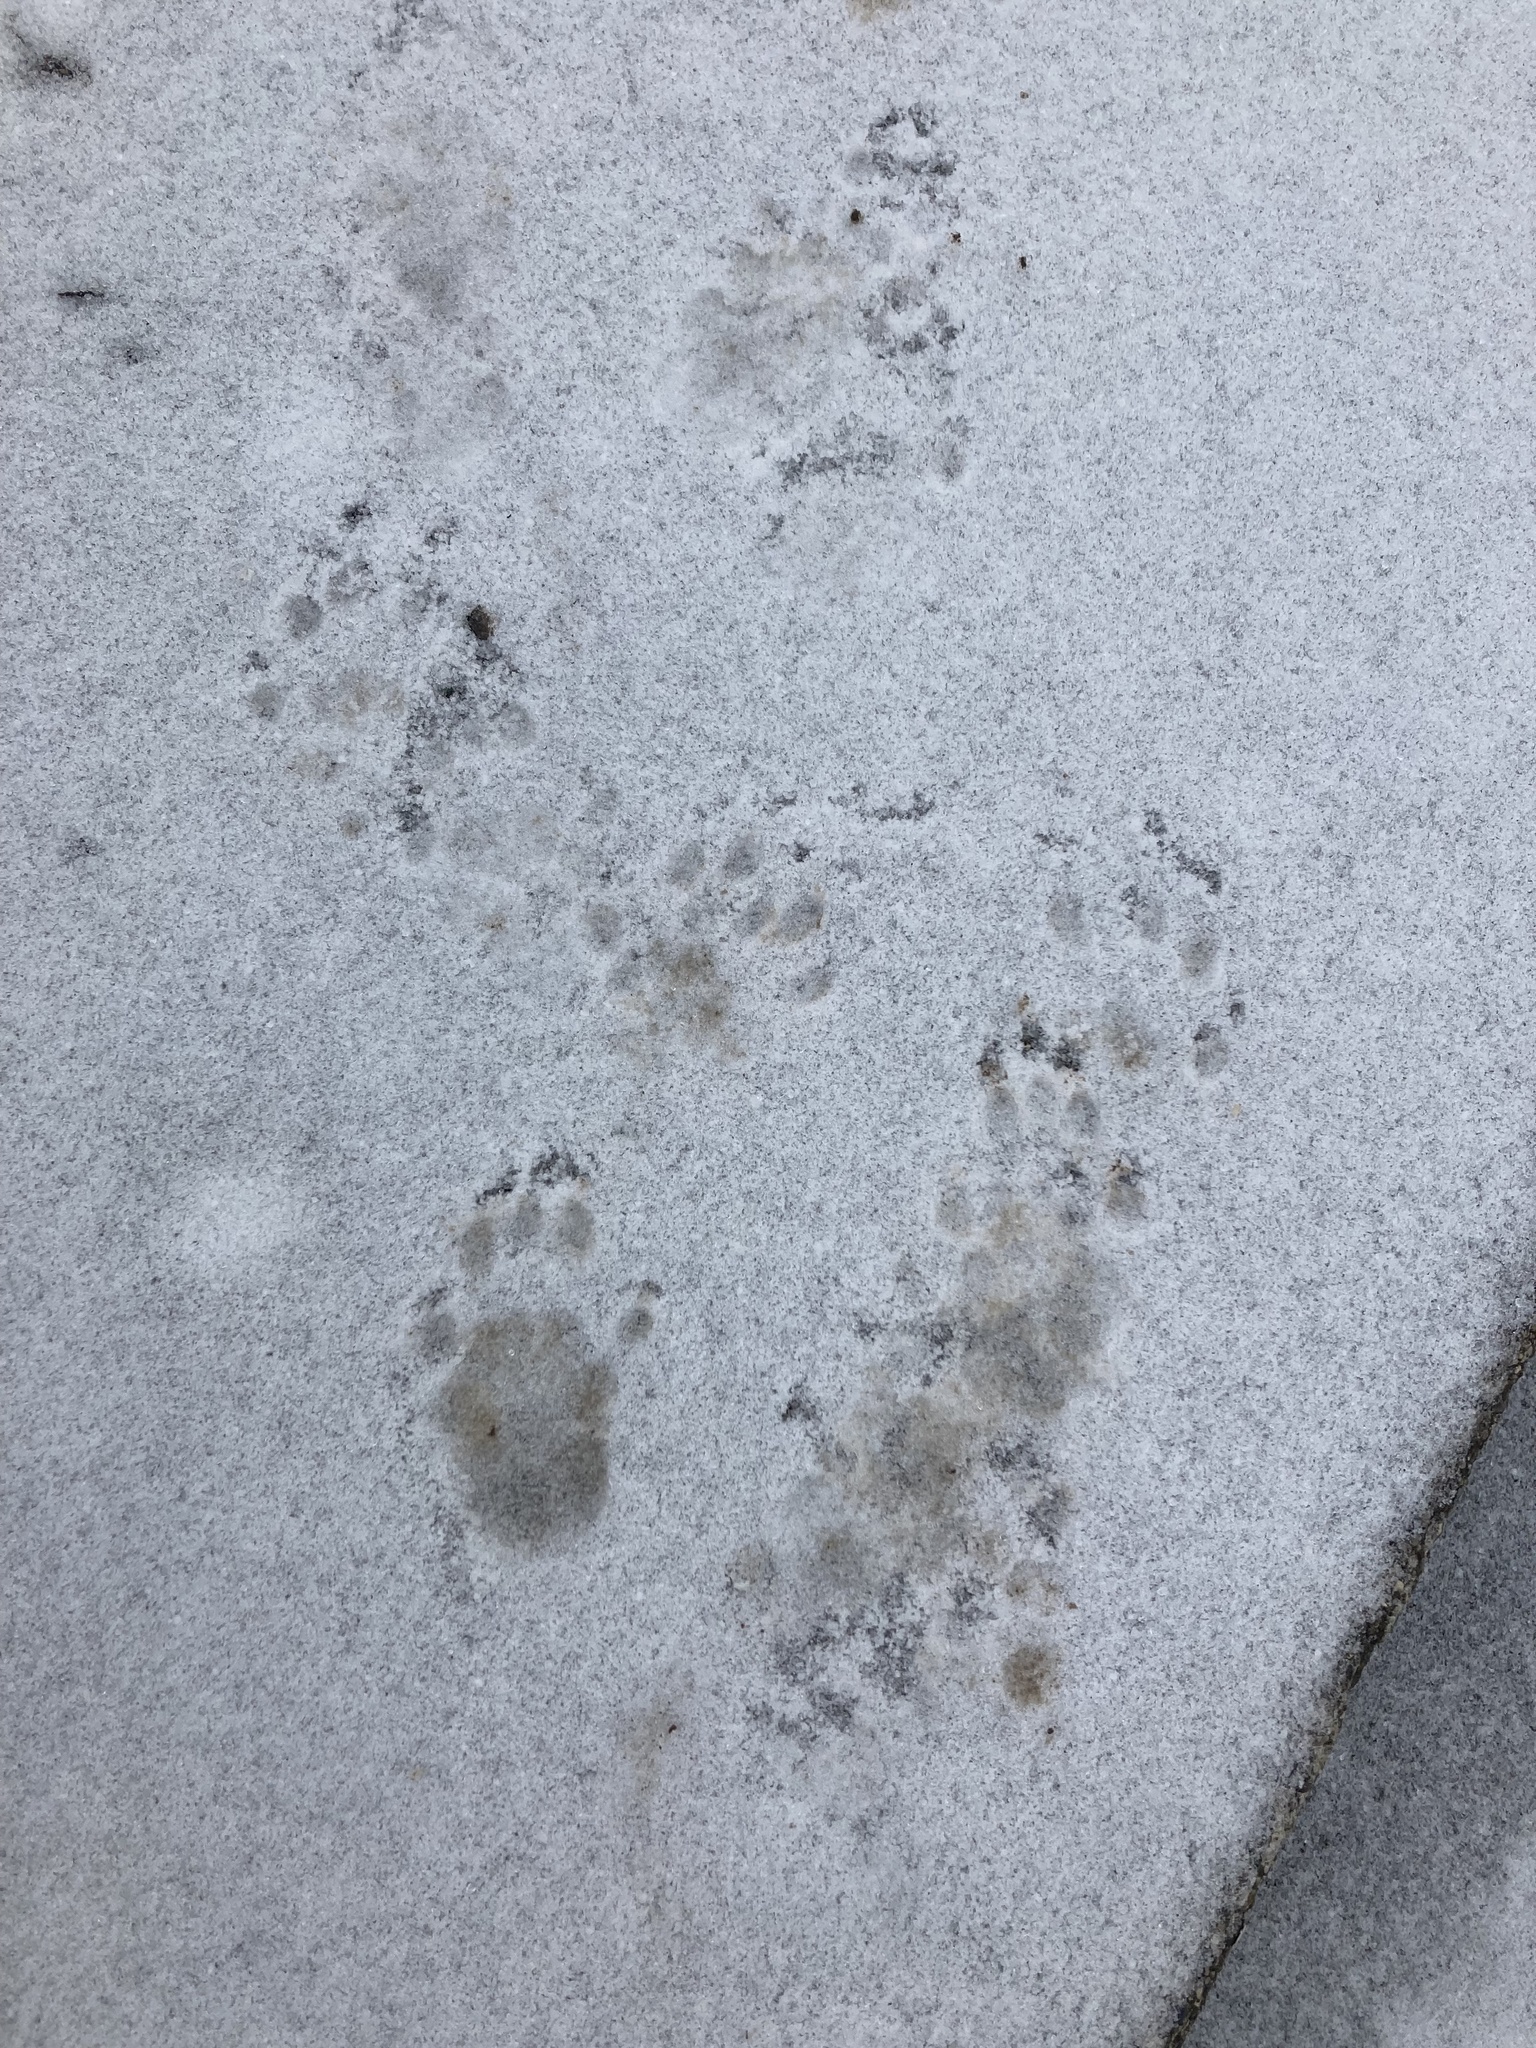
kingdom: Animalia
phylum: Chordata
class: Mammalia
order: Rodentia
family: Sciuridae
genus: Marmota
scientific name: Marmota monax
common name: Groundhog
